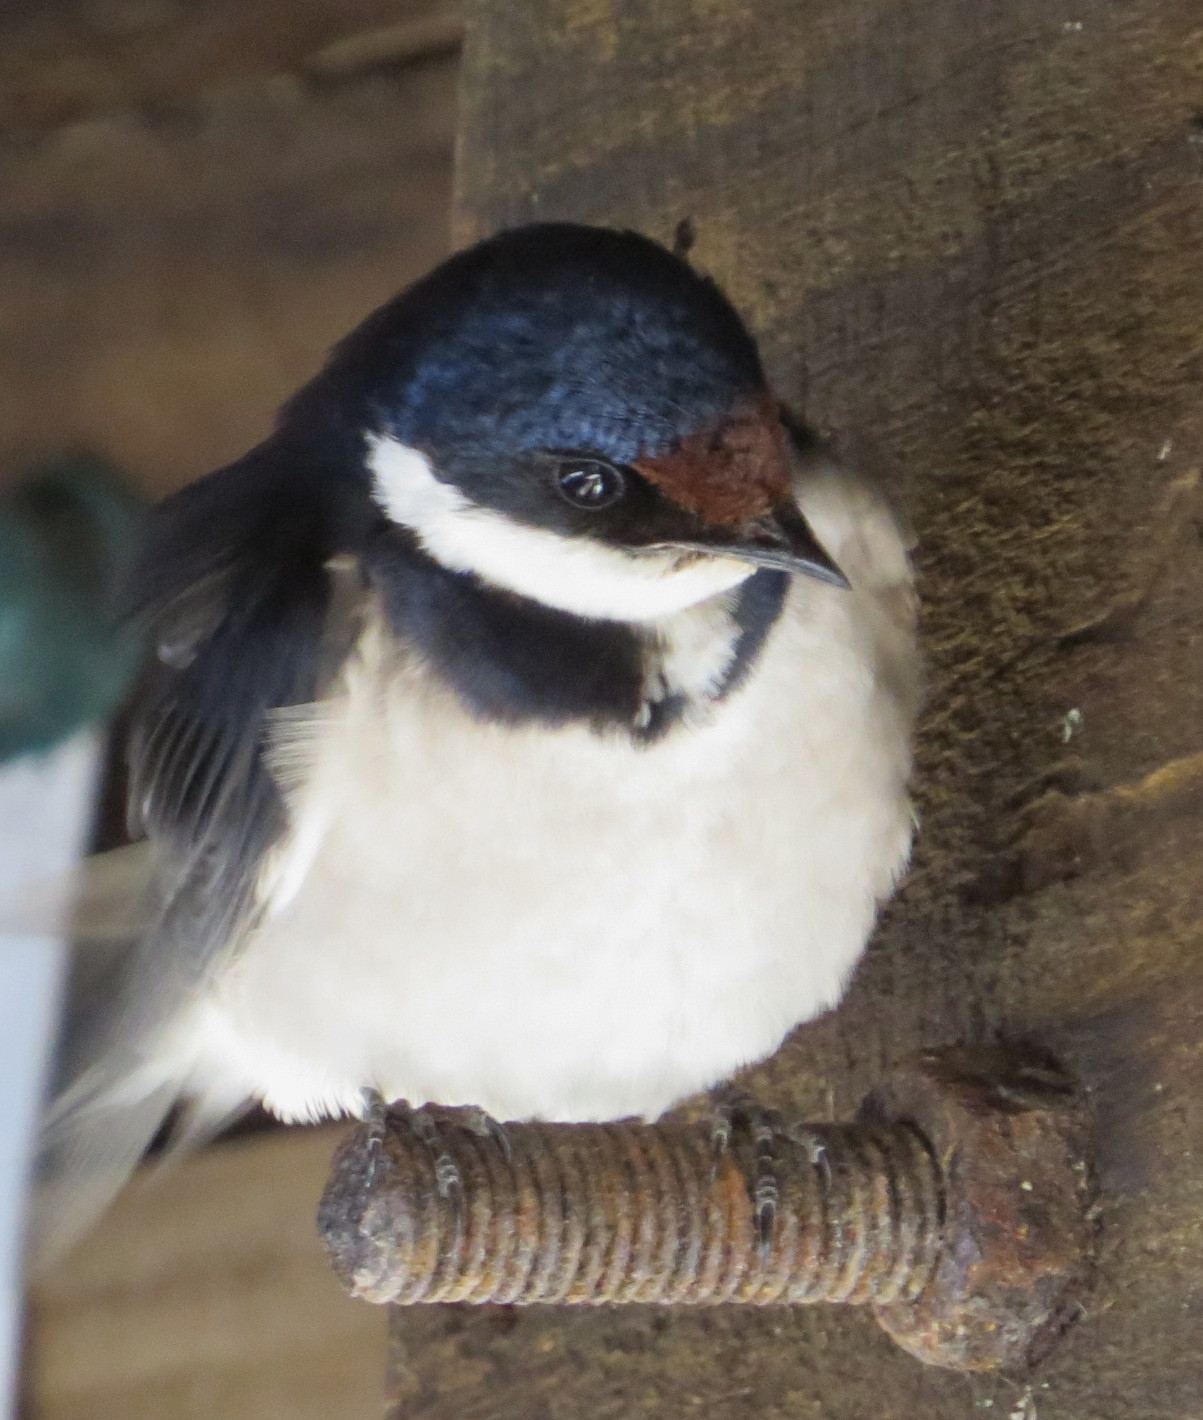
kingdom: Animalia
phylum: Chordata
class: Aves
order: Passeriformes
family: Hirundinidae
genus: Hirundo
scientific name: Hirundo albigularis
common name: White-throated swallow
